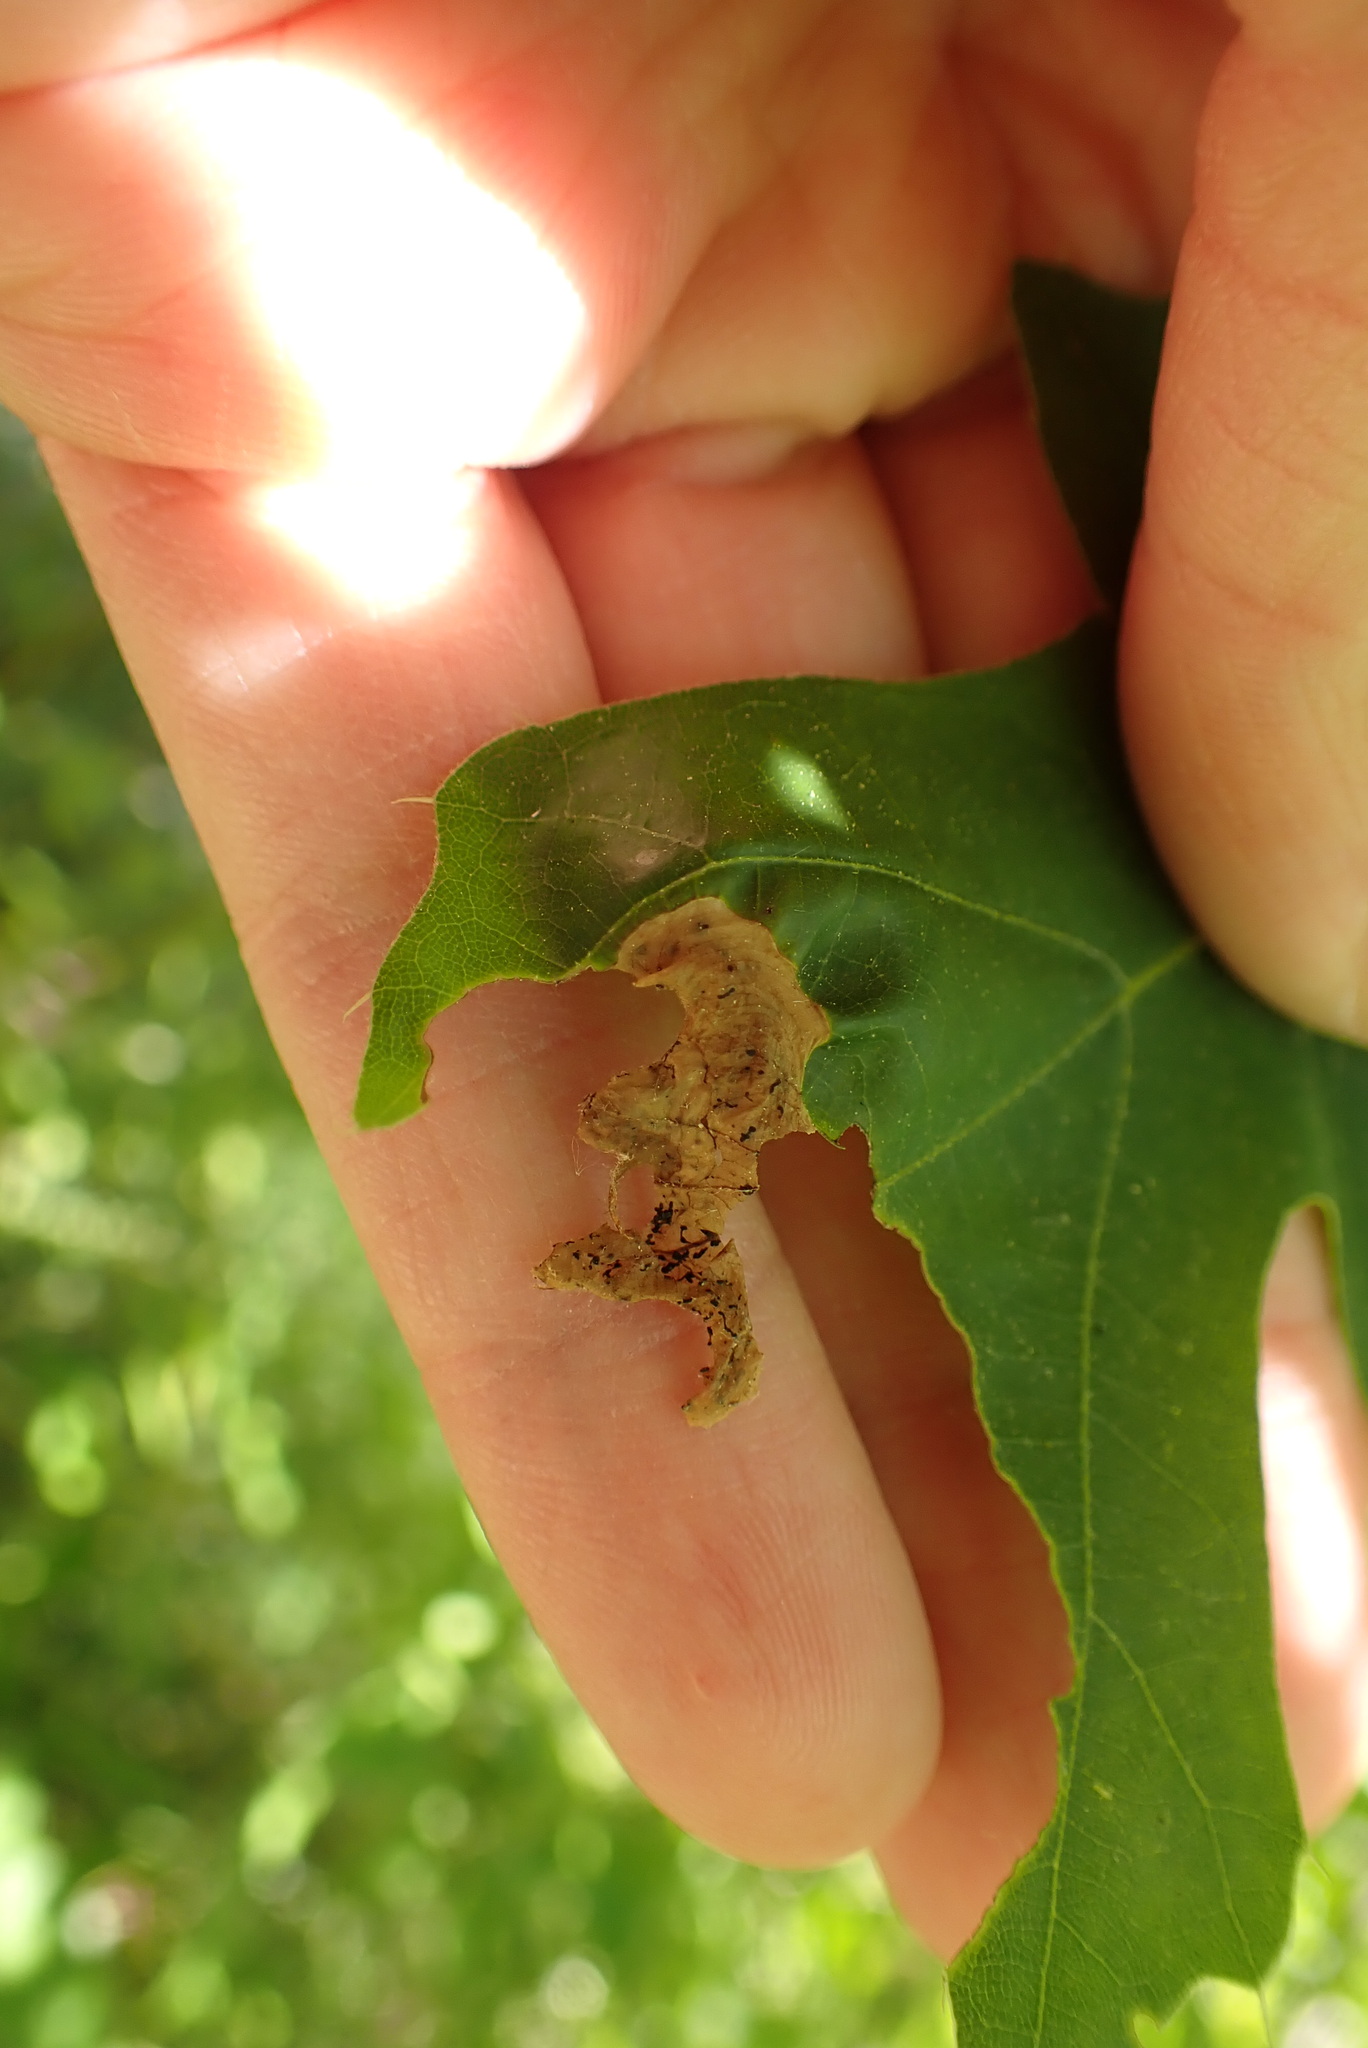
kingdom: Animalia
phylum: Arthropoda
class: Insecta
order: Diptera
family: Agromyzidae
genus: Japanagromyza
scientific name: Japanagromyza viridula
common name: Oak shothole leafminer
